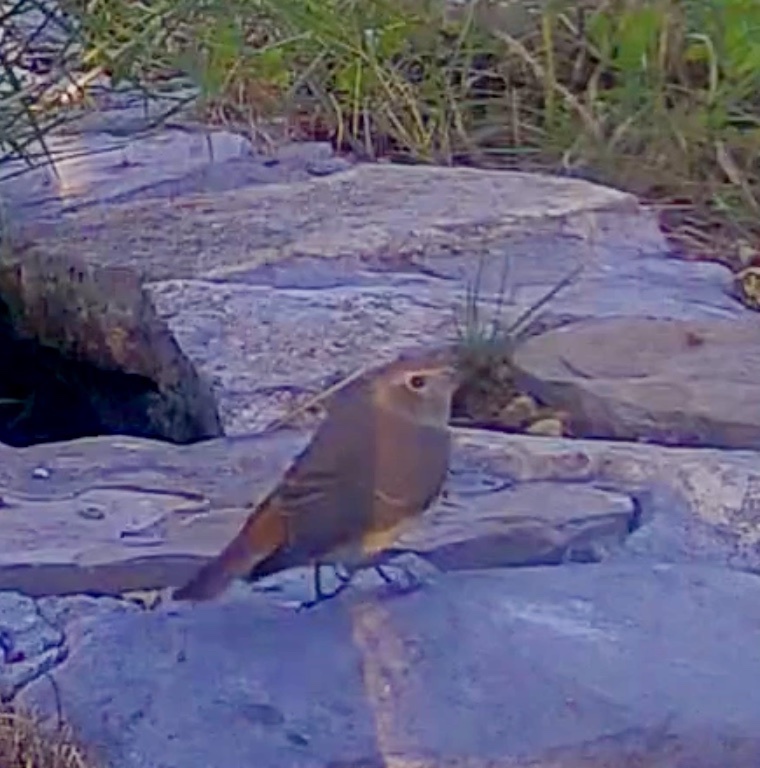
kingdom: Animalia
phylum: Chordata
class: Aves
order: Passeriformes
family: Muscicapidae
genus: Phoenicurus
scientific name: Phoenicurus phoenicurus
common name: Common redstart
